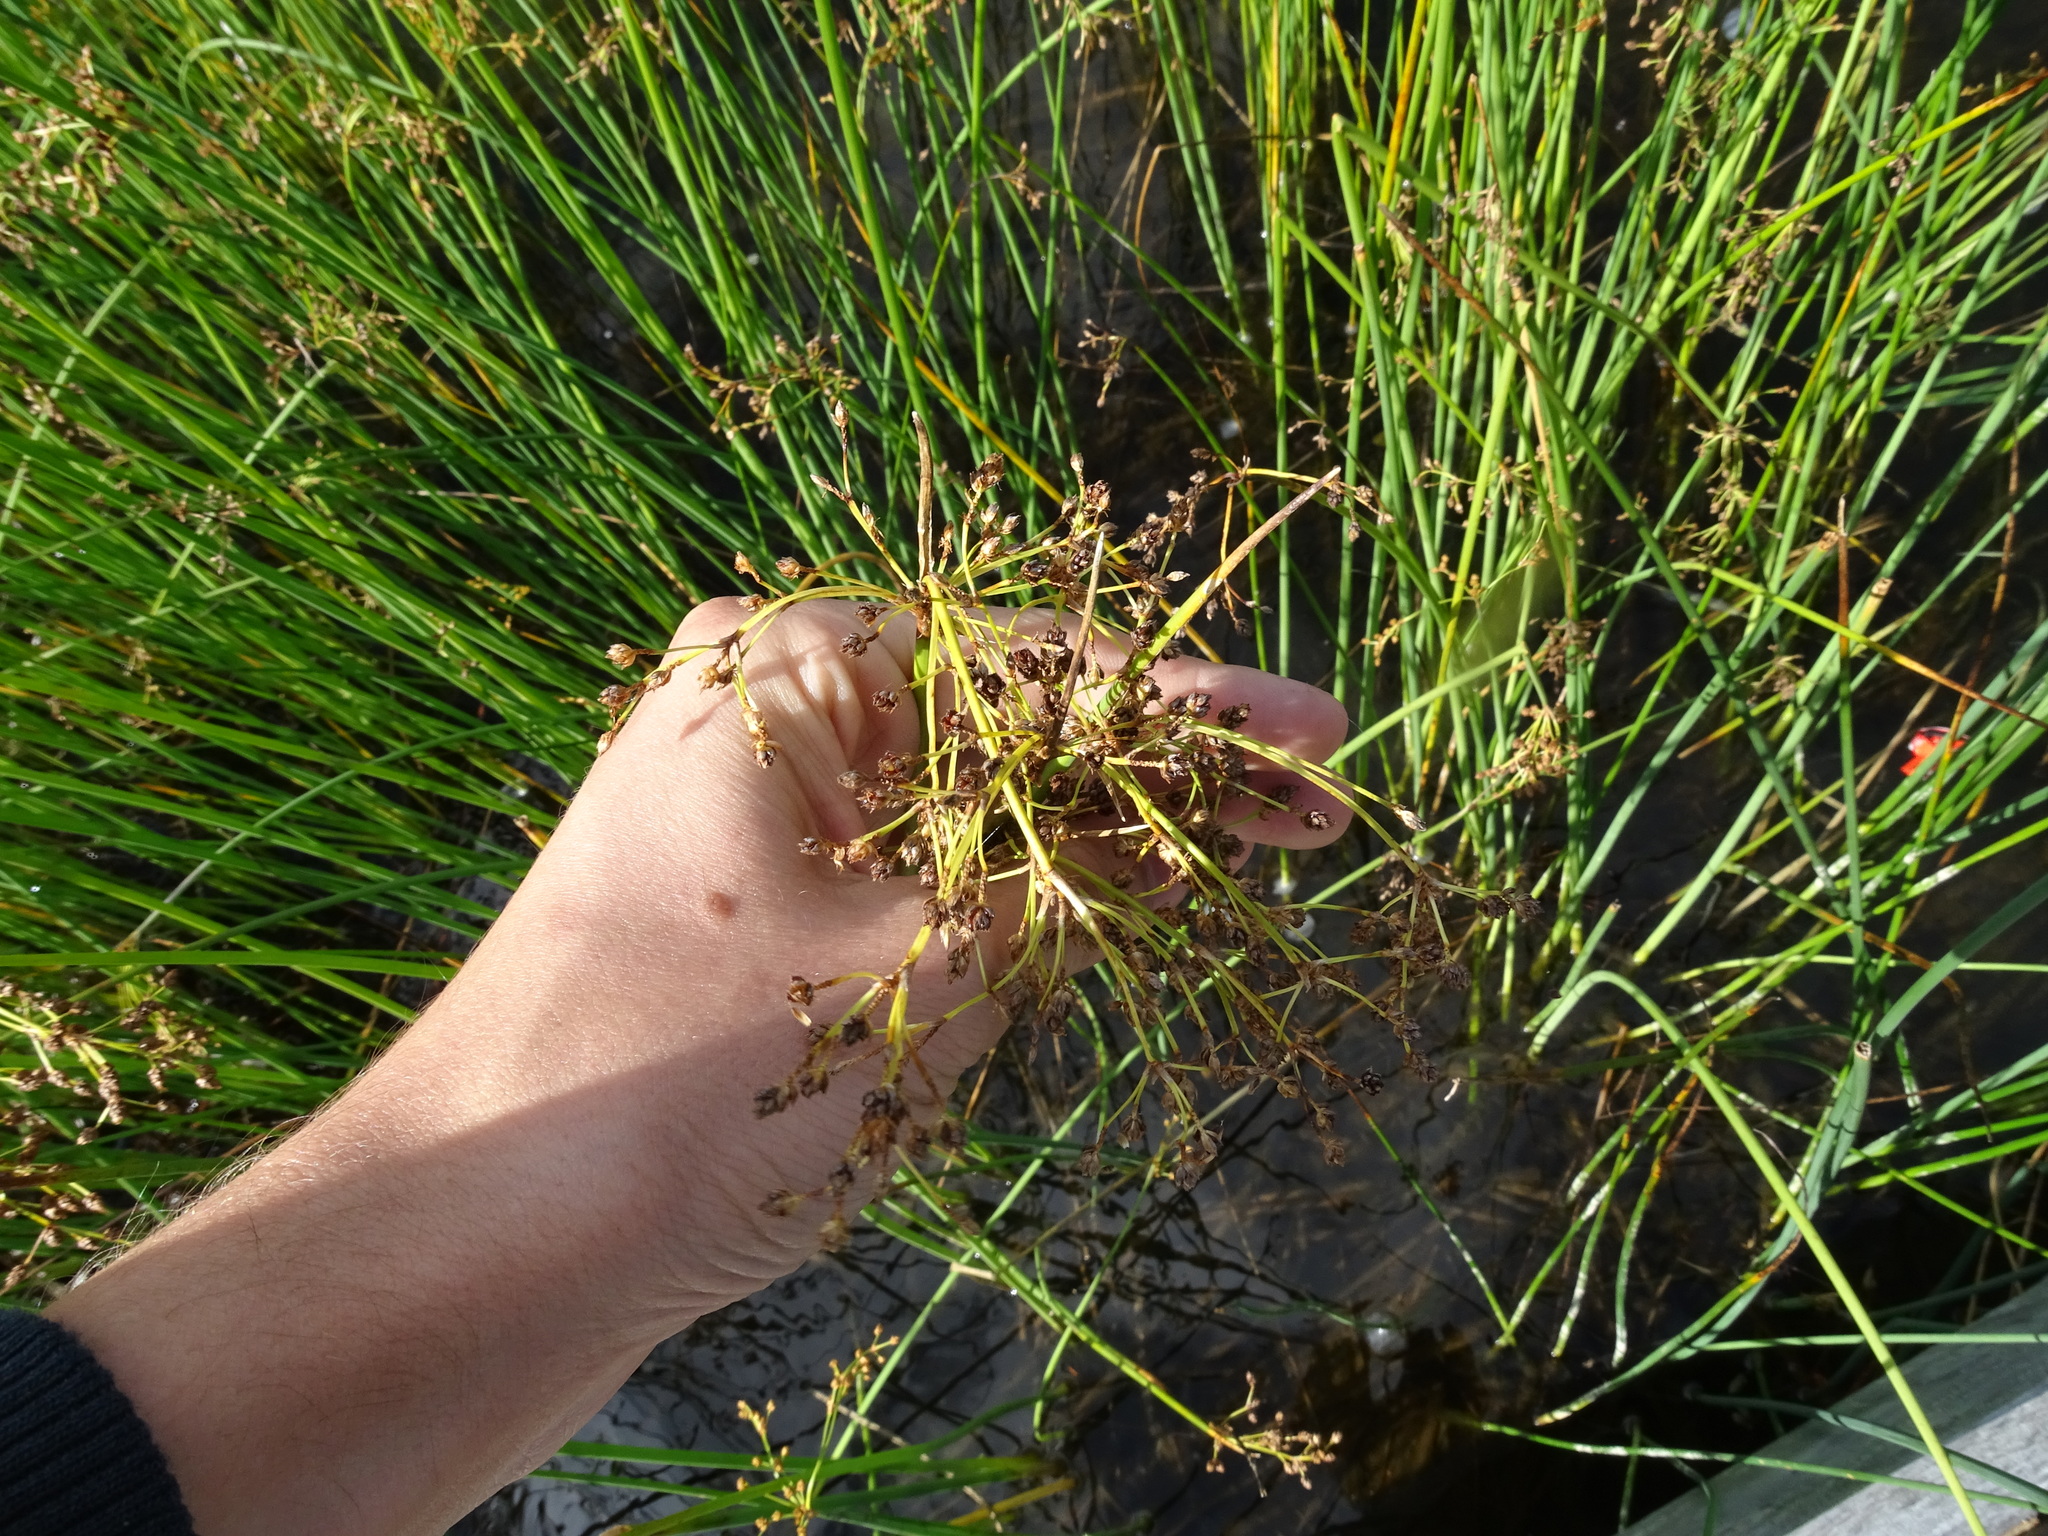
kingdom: Plantae
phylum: Tracheophyta
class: Liliopsida
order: Poales
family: Cyperaceae
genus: Schoenoplectus
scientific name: Schoenoplectus tabernaemontani
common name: Grey club-rush
